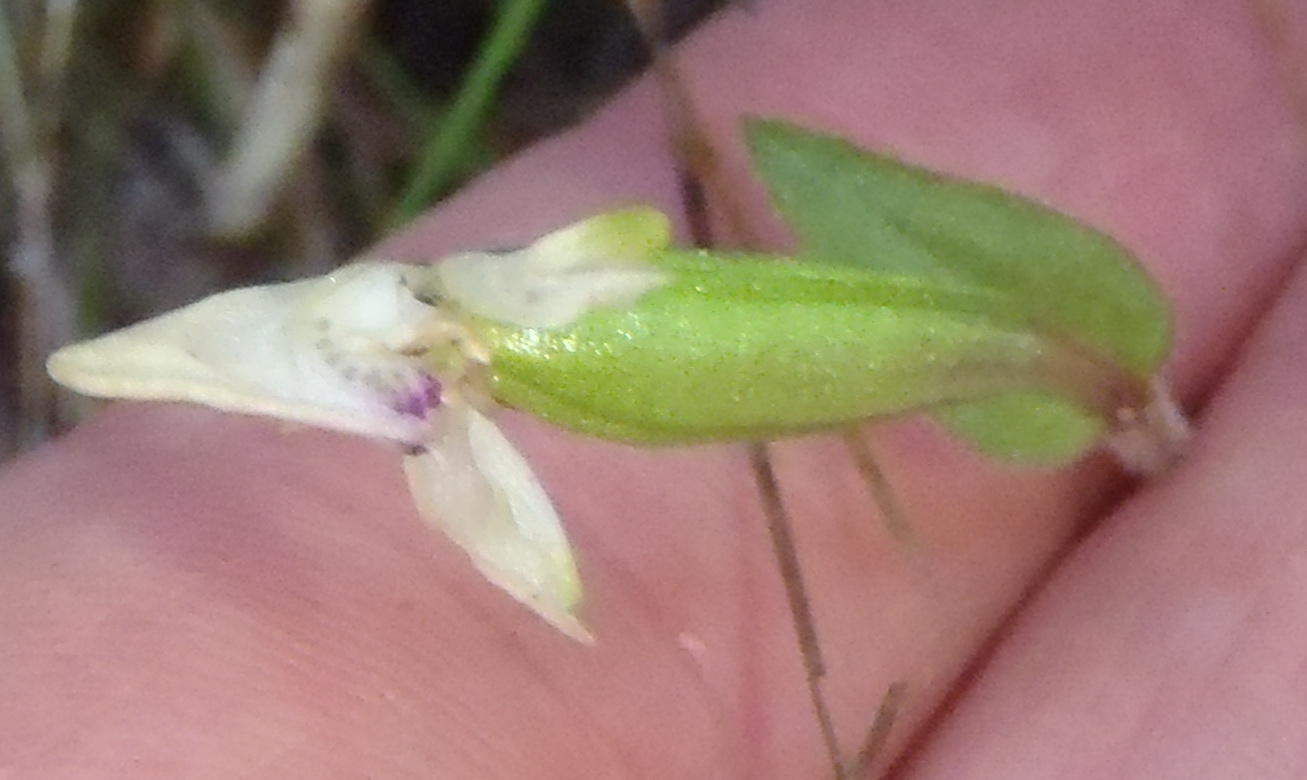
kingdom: Plantae
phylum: Tracheophyta
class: Liliopsida
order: Asparagales
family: Orchidaceae
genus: Disperis
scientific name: Disperis macowanii
